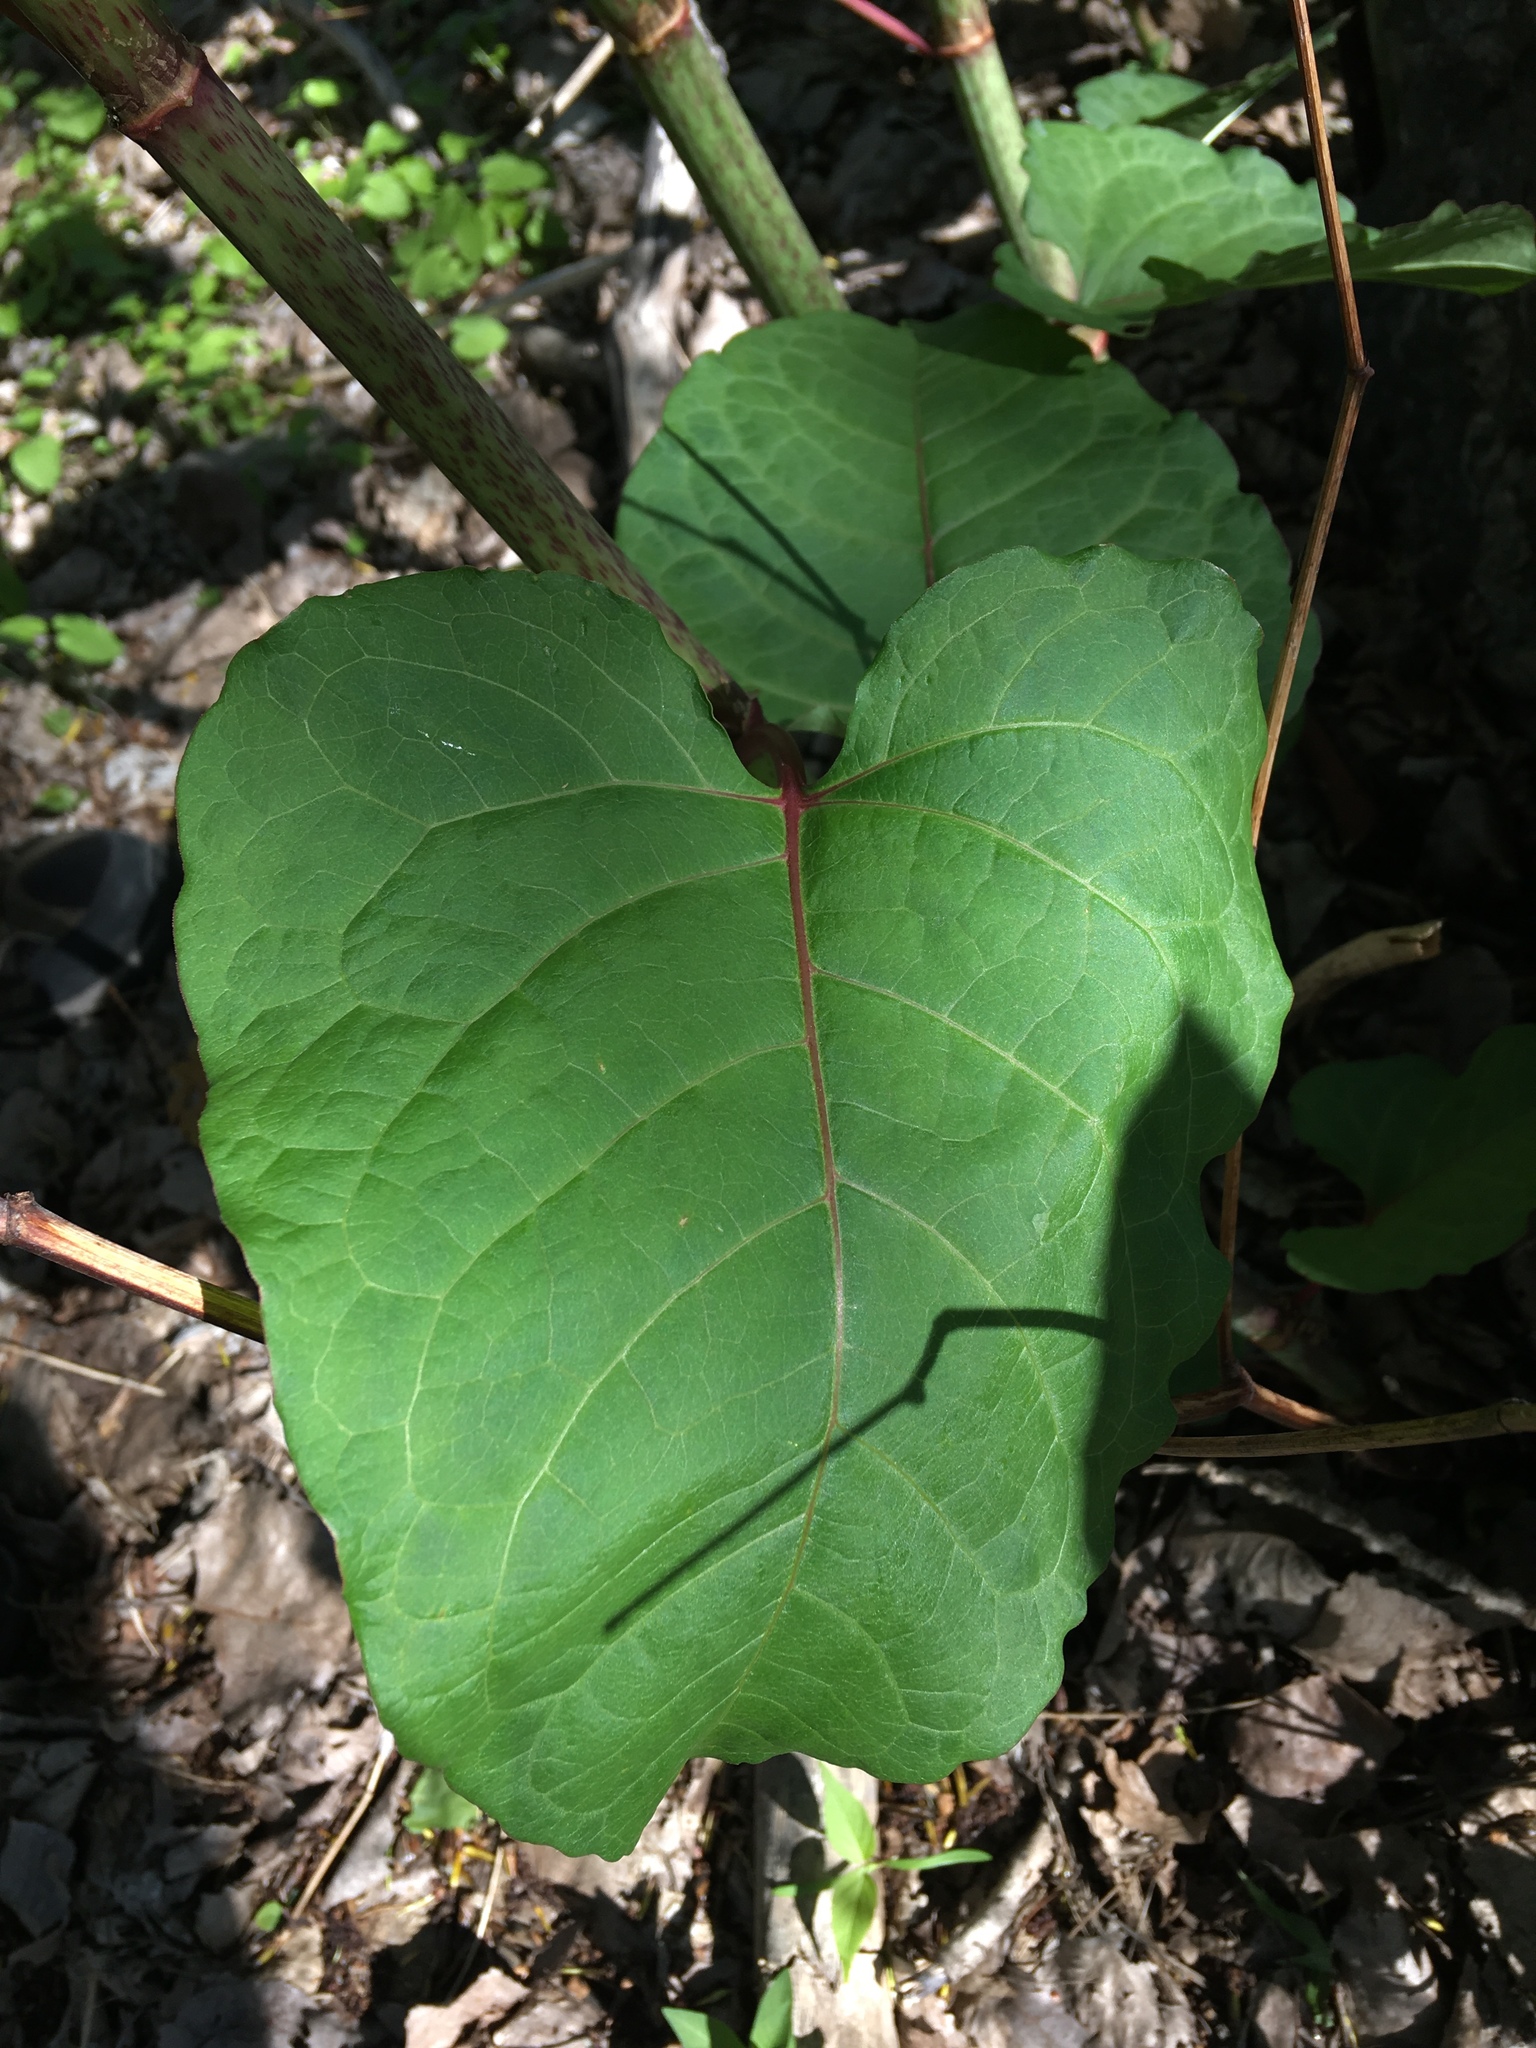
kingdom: Plantae
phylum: Tracheophyta
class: Magnoliopsida
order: Caryophyllales
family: Polygonaceae
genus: Reynoutria
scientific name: Reynoutria sachalinensis
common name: Giant knotweed
